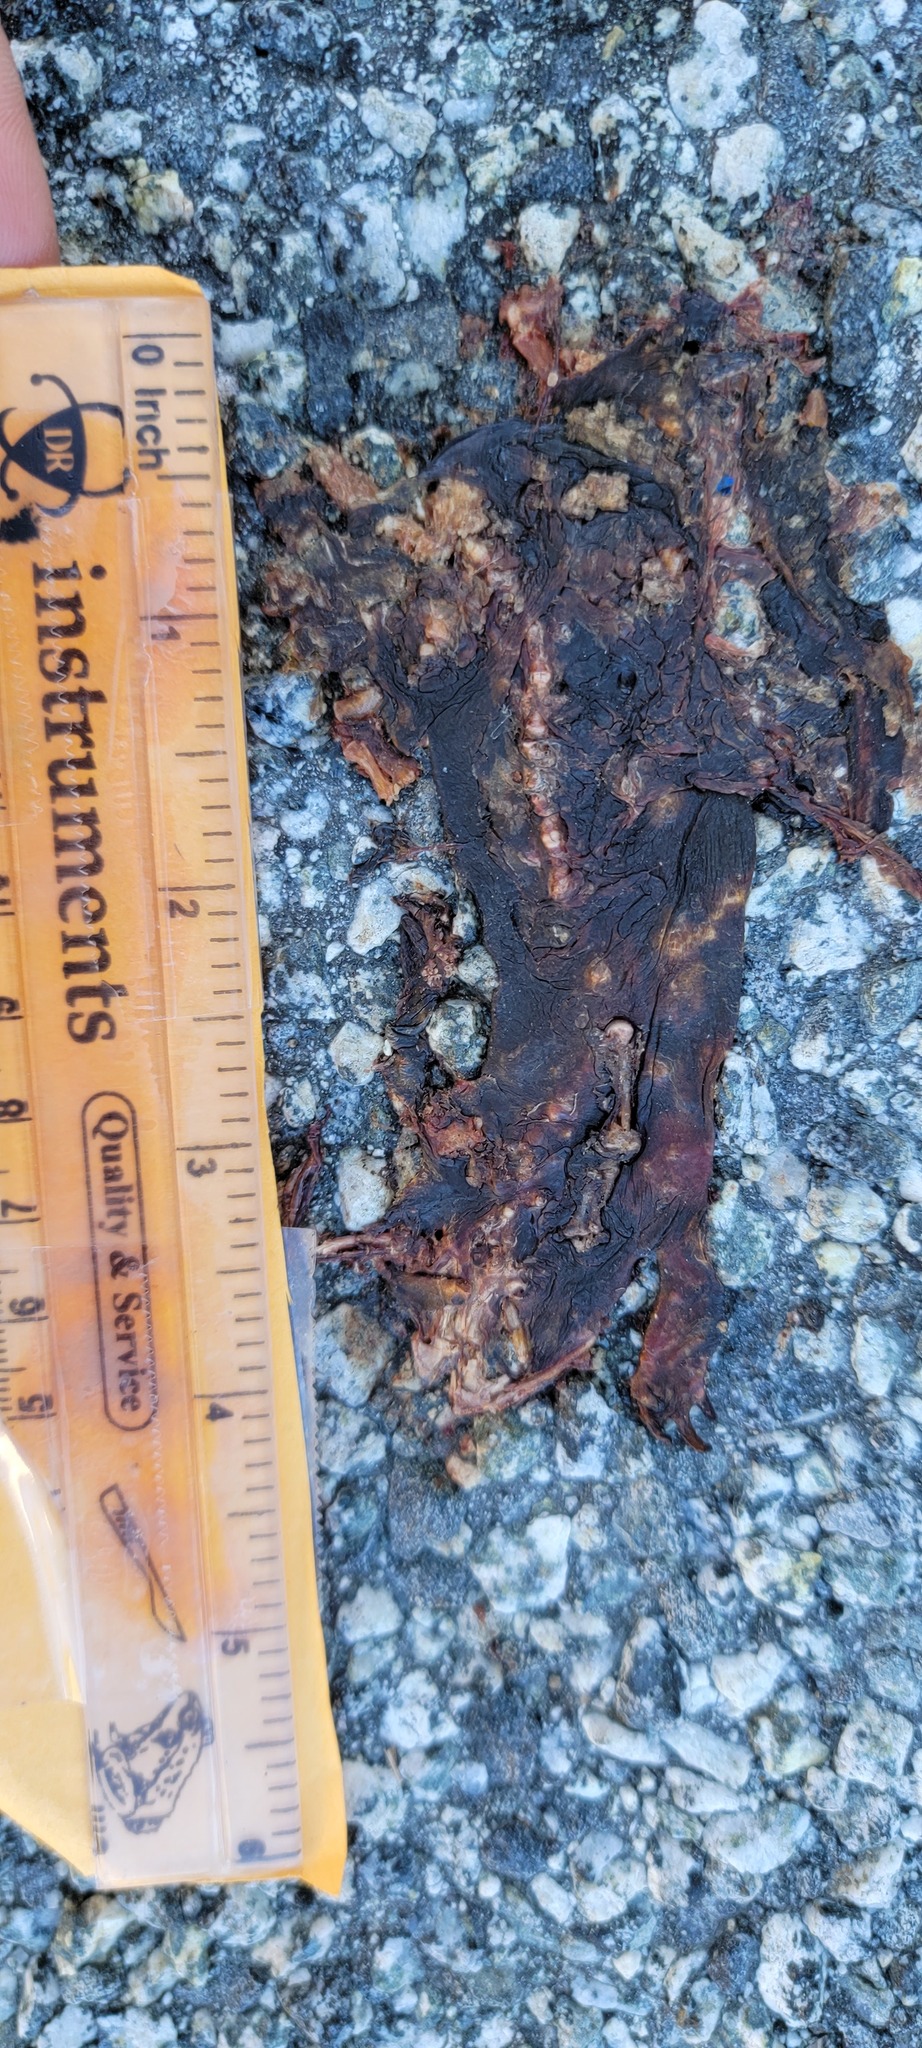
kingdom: Animalia
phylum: Chordata
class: Amphibia
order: Caudata
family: Salamandridae
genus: Taricha
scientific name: Taricha
